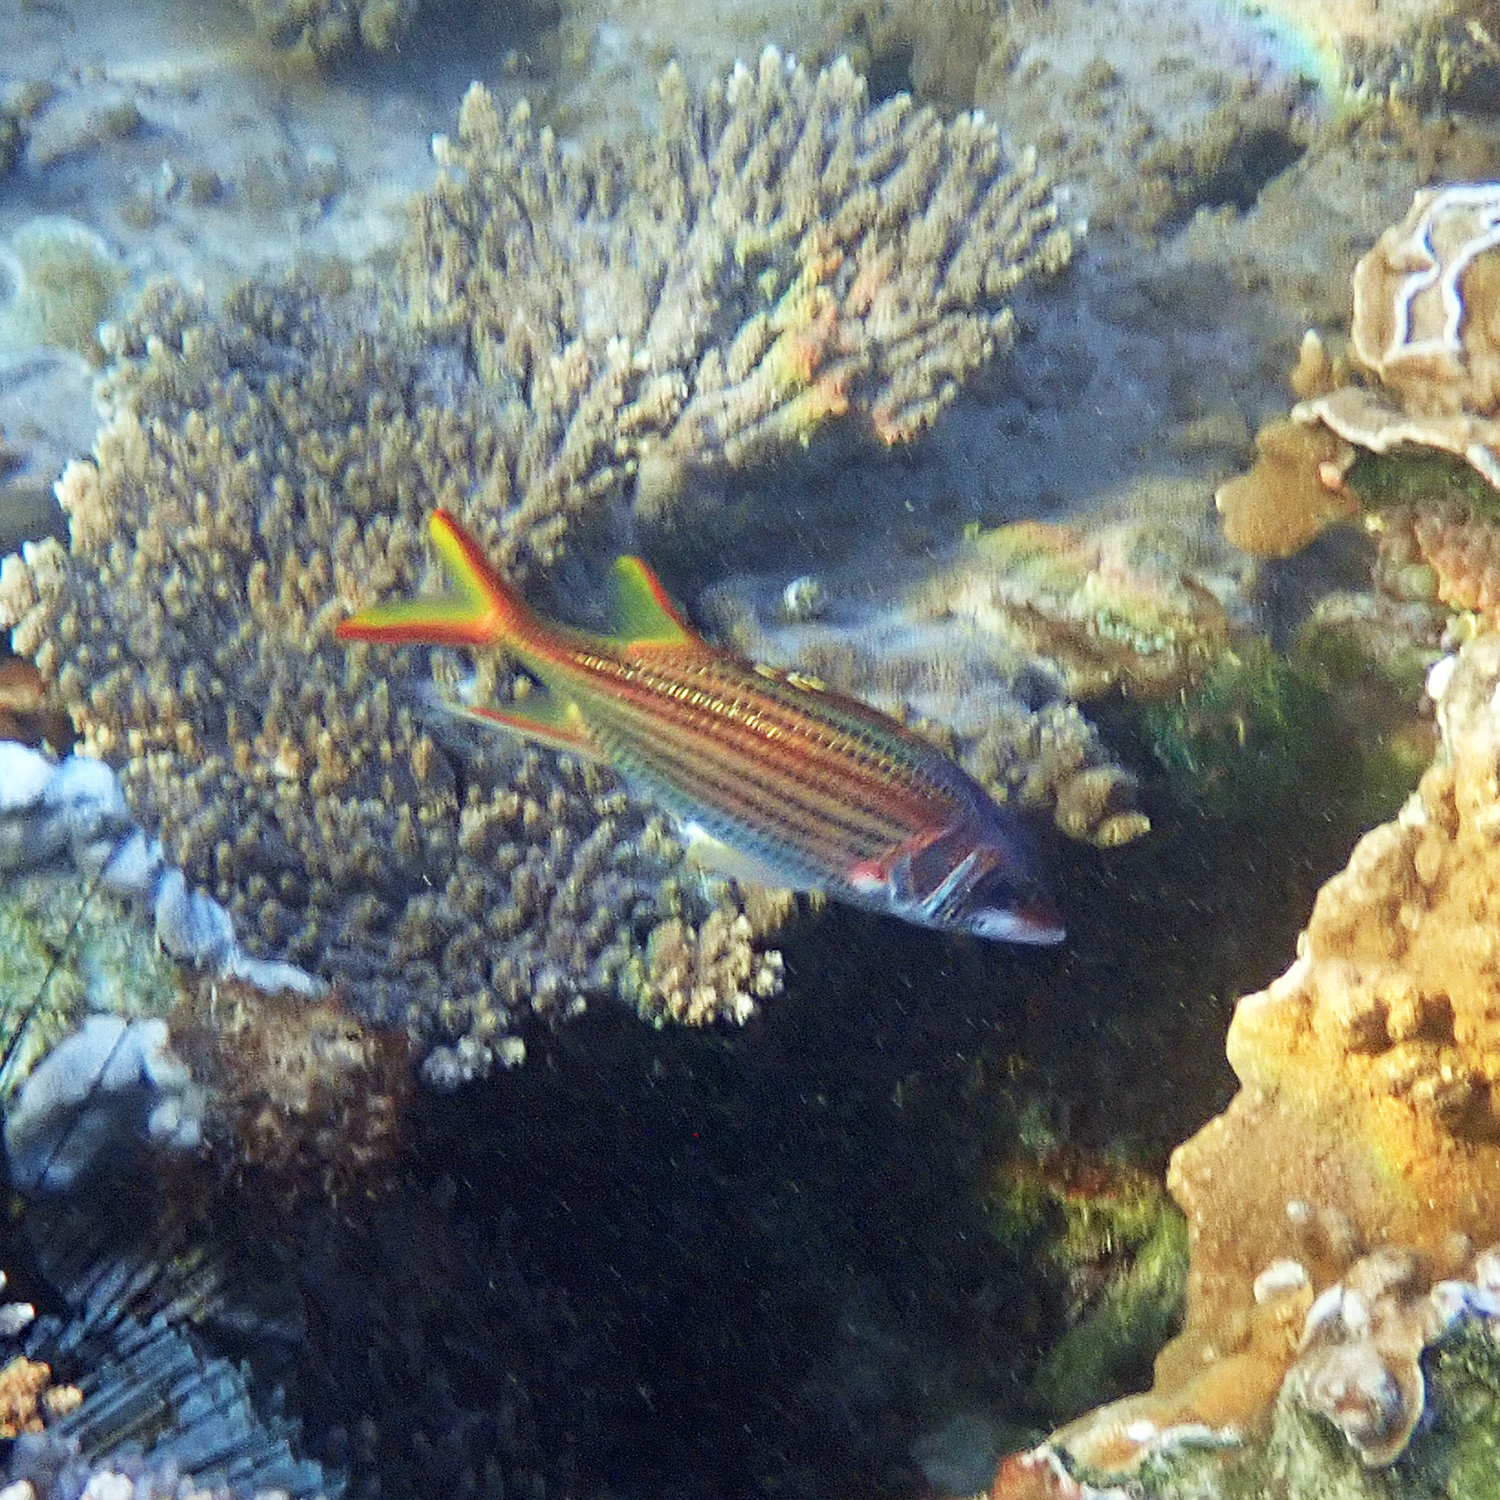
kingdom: Animalia
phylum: Chordata
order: Beryciformes
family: Holocentridae
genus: Neoniphon
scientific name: Neoniphon sammara
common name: Sammara squirrelfish
